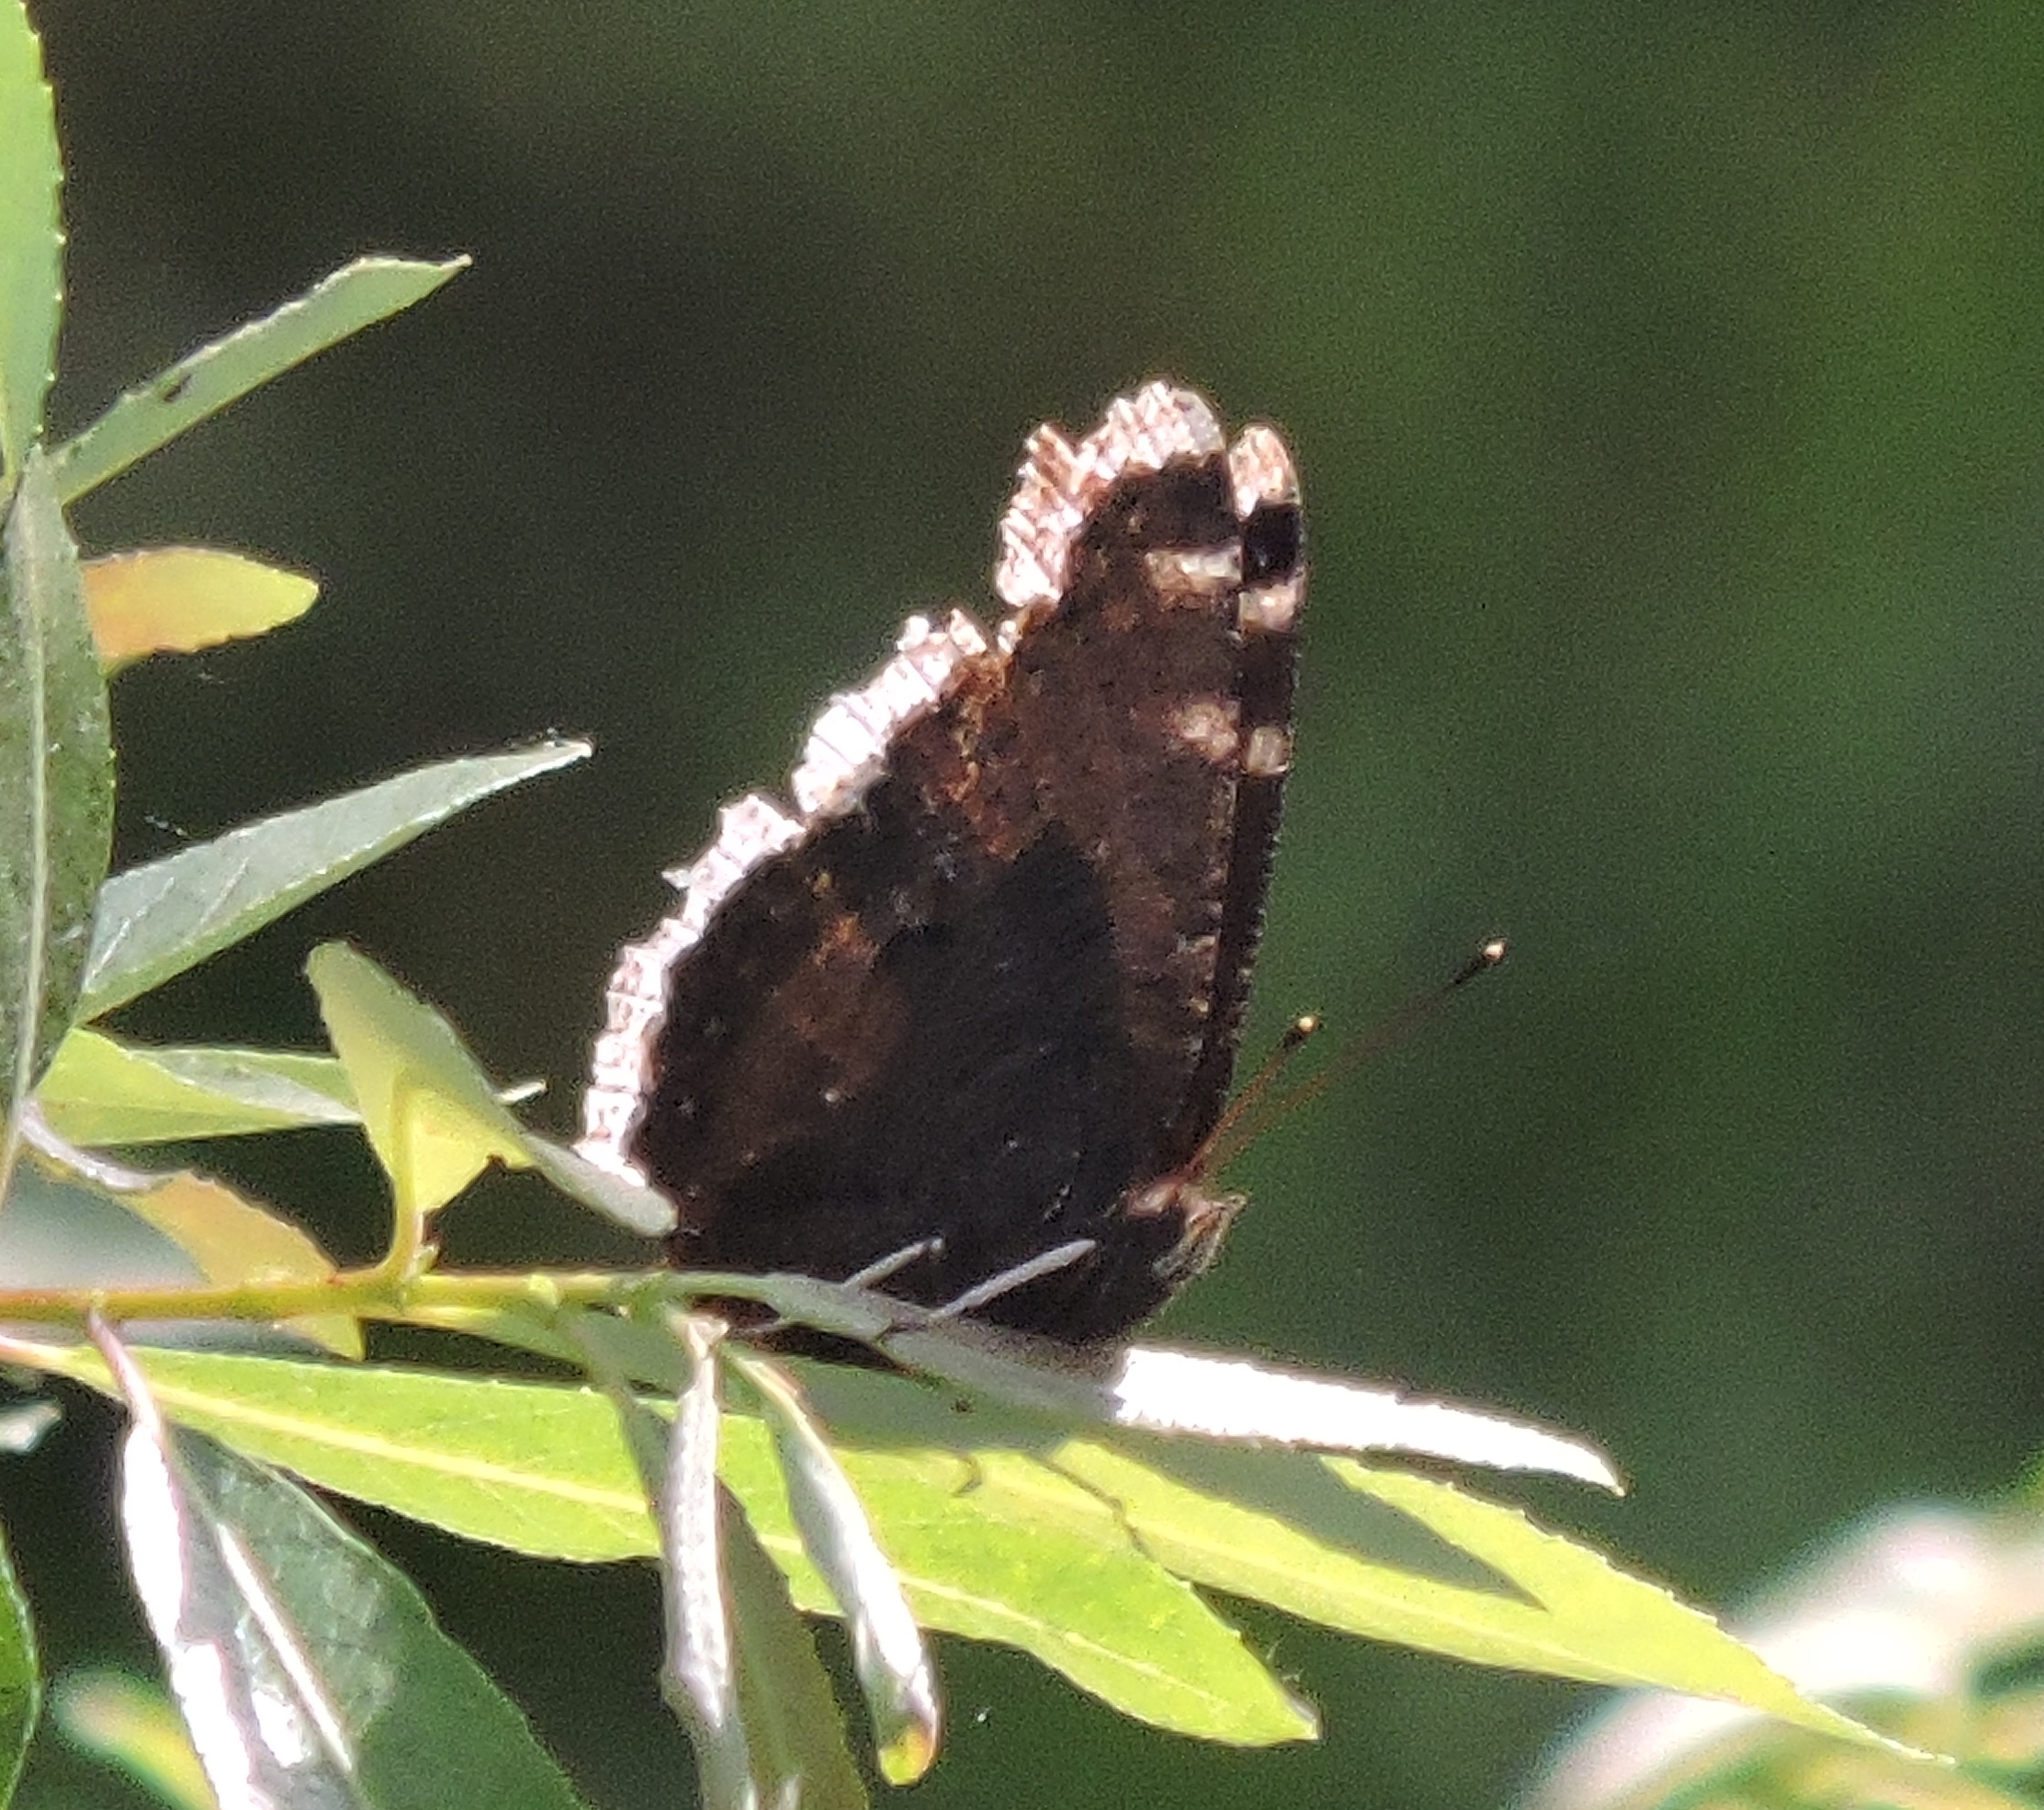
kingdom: Animalia
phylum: Arthropoda
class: Insecta
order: Lepidoptera
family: Nymphalidae
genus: Nymphalis
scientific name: Nymphalis antiopa
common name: Camberwell beauty
